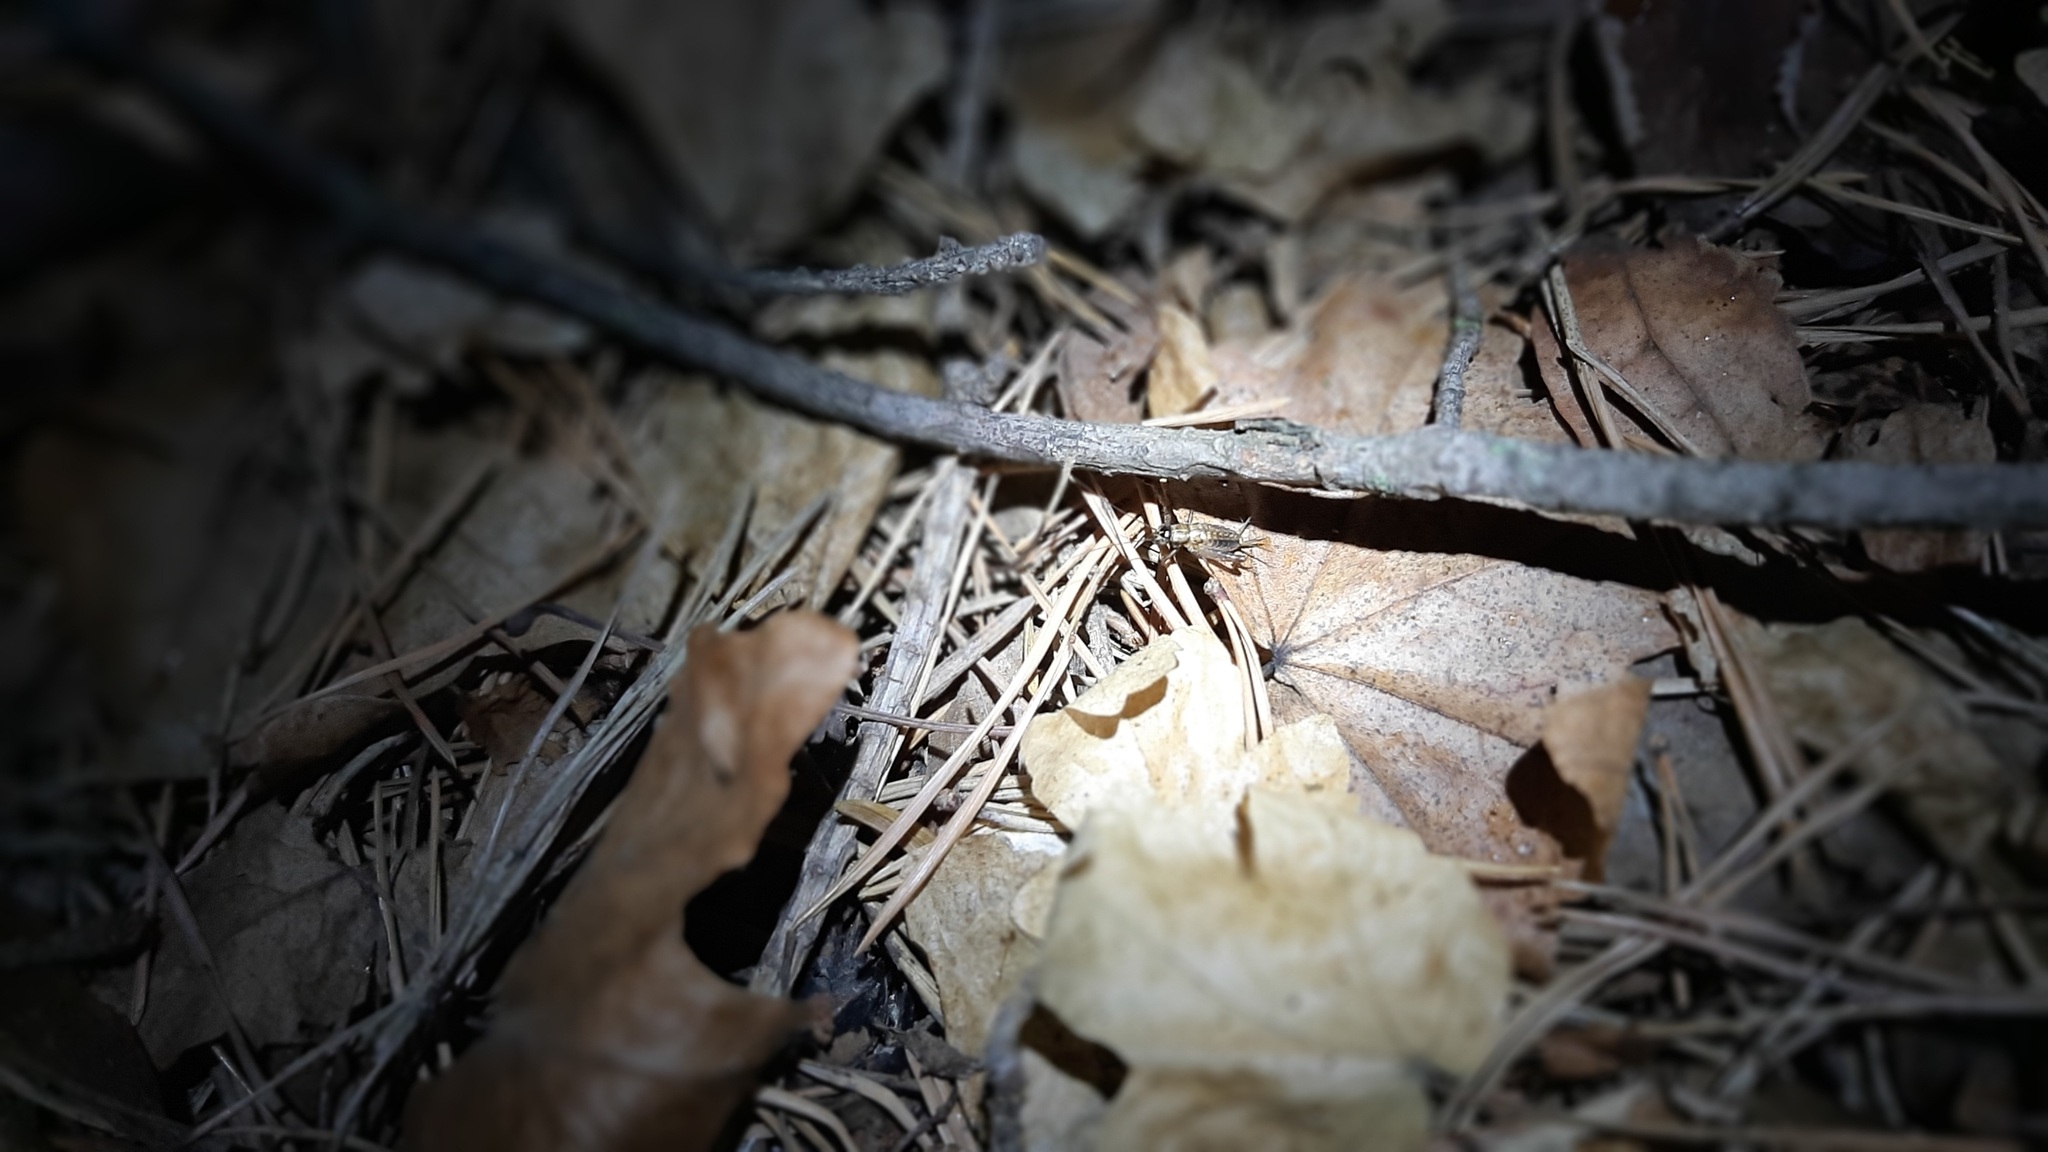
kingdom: Animalia
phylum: Arthropoda
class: Insecta
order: Orthoptera
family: Trigonidiidae
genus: Nemobius
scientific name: Nemobius sylvestris
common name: Wood-cricket
